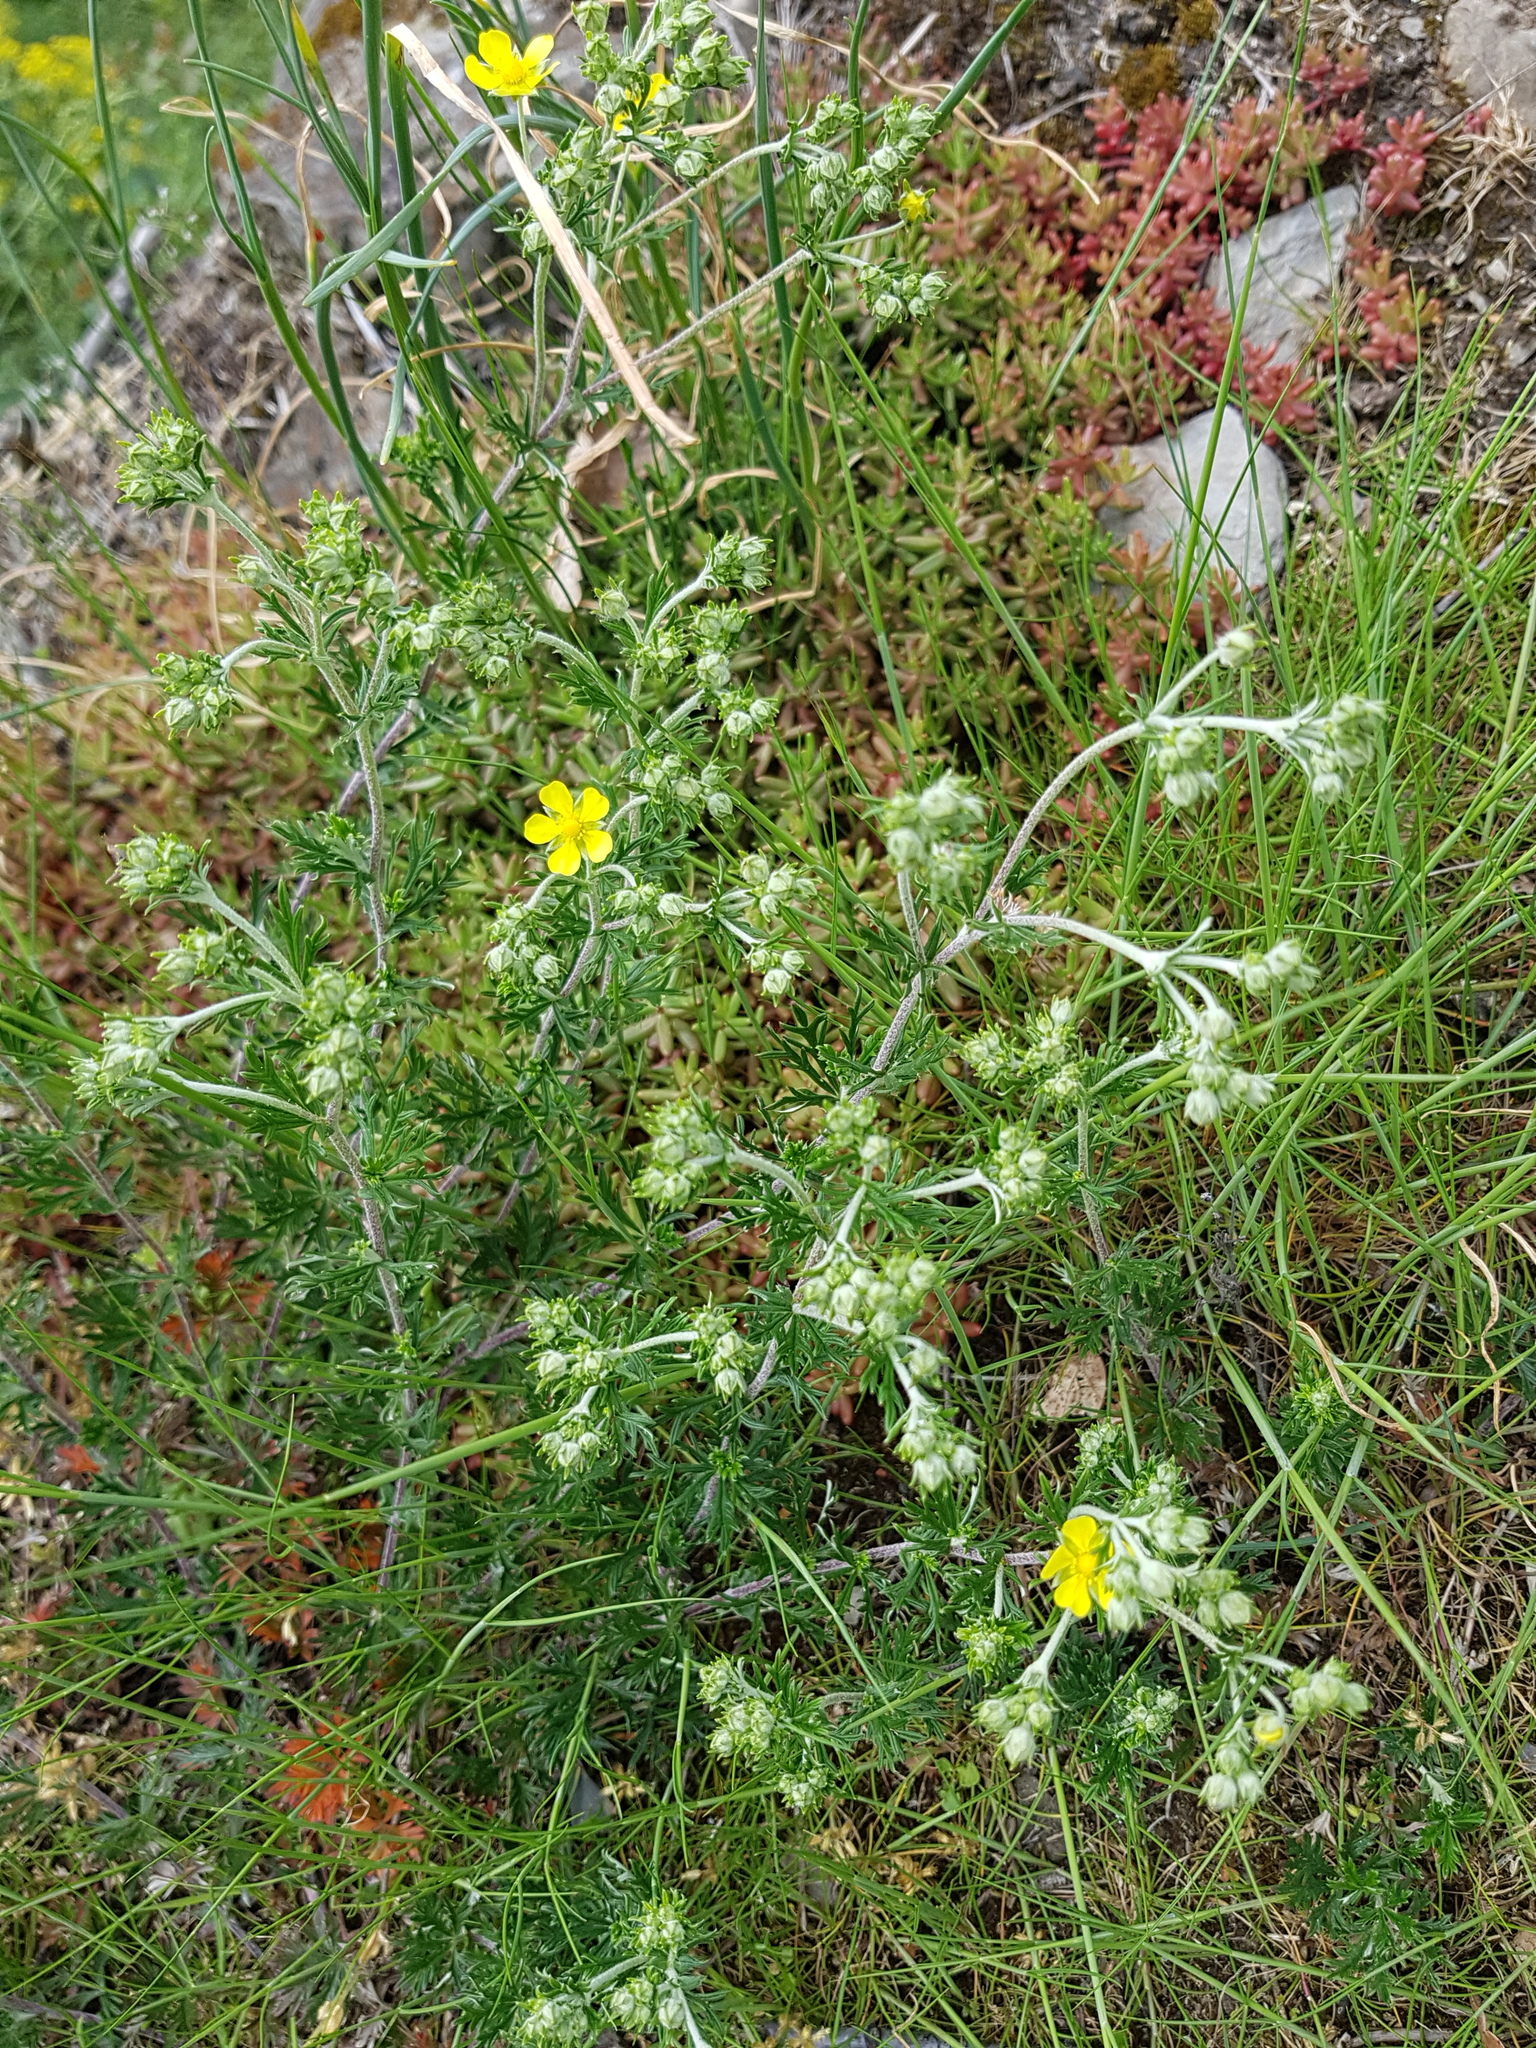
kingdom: Plantae
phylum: Tracheophyta
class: Magnoliopsida
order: Rosales
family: Rosaceae
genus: Potentilla
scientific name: Potentilla argentea
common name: Hoary cinquefoil
